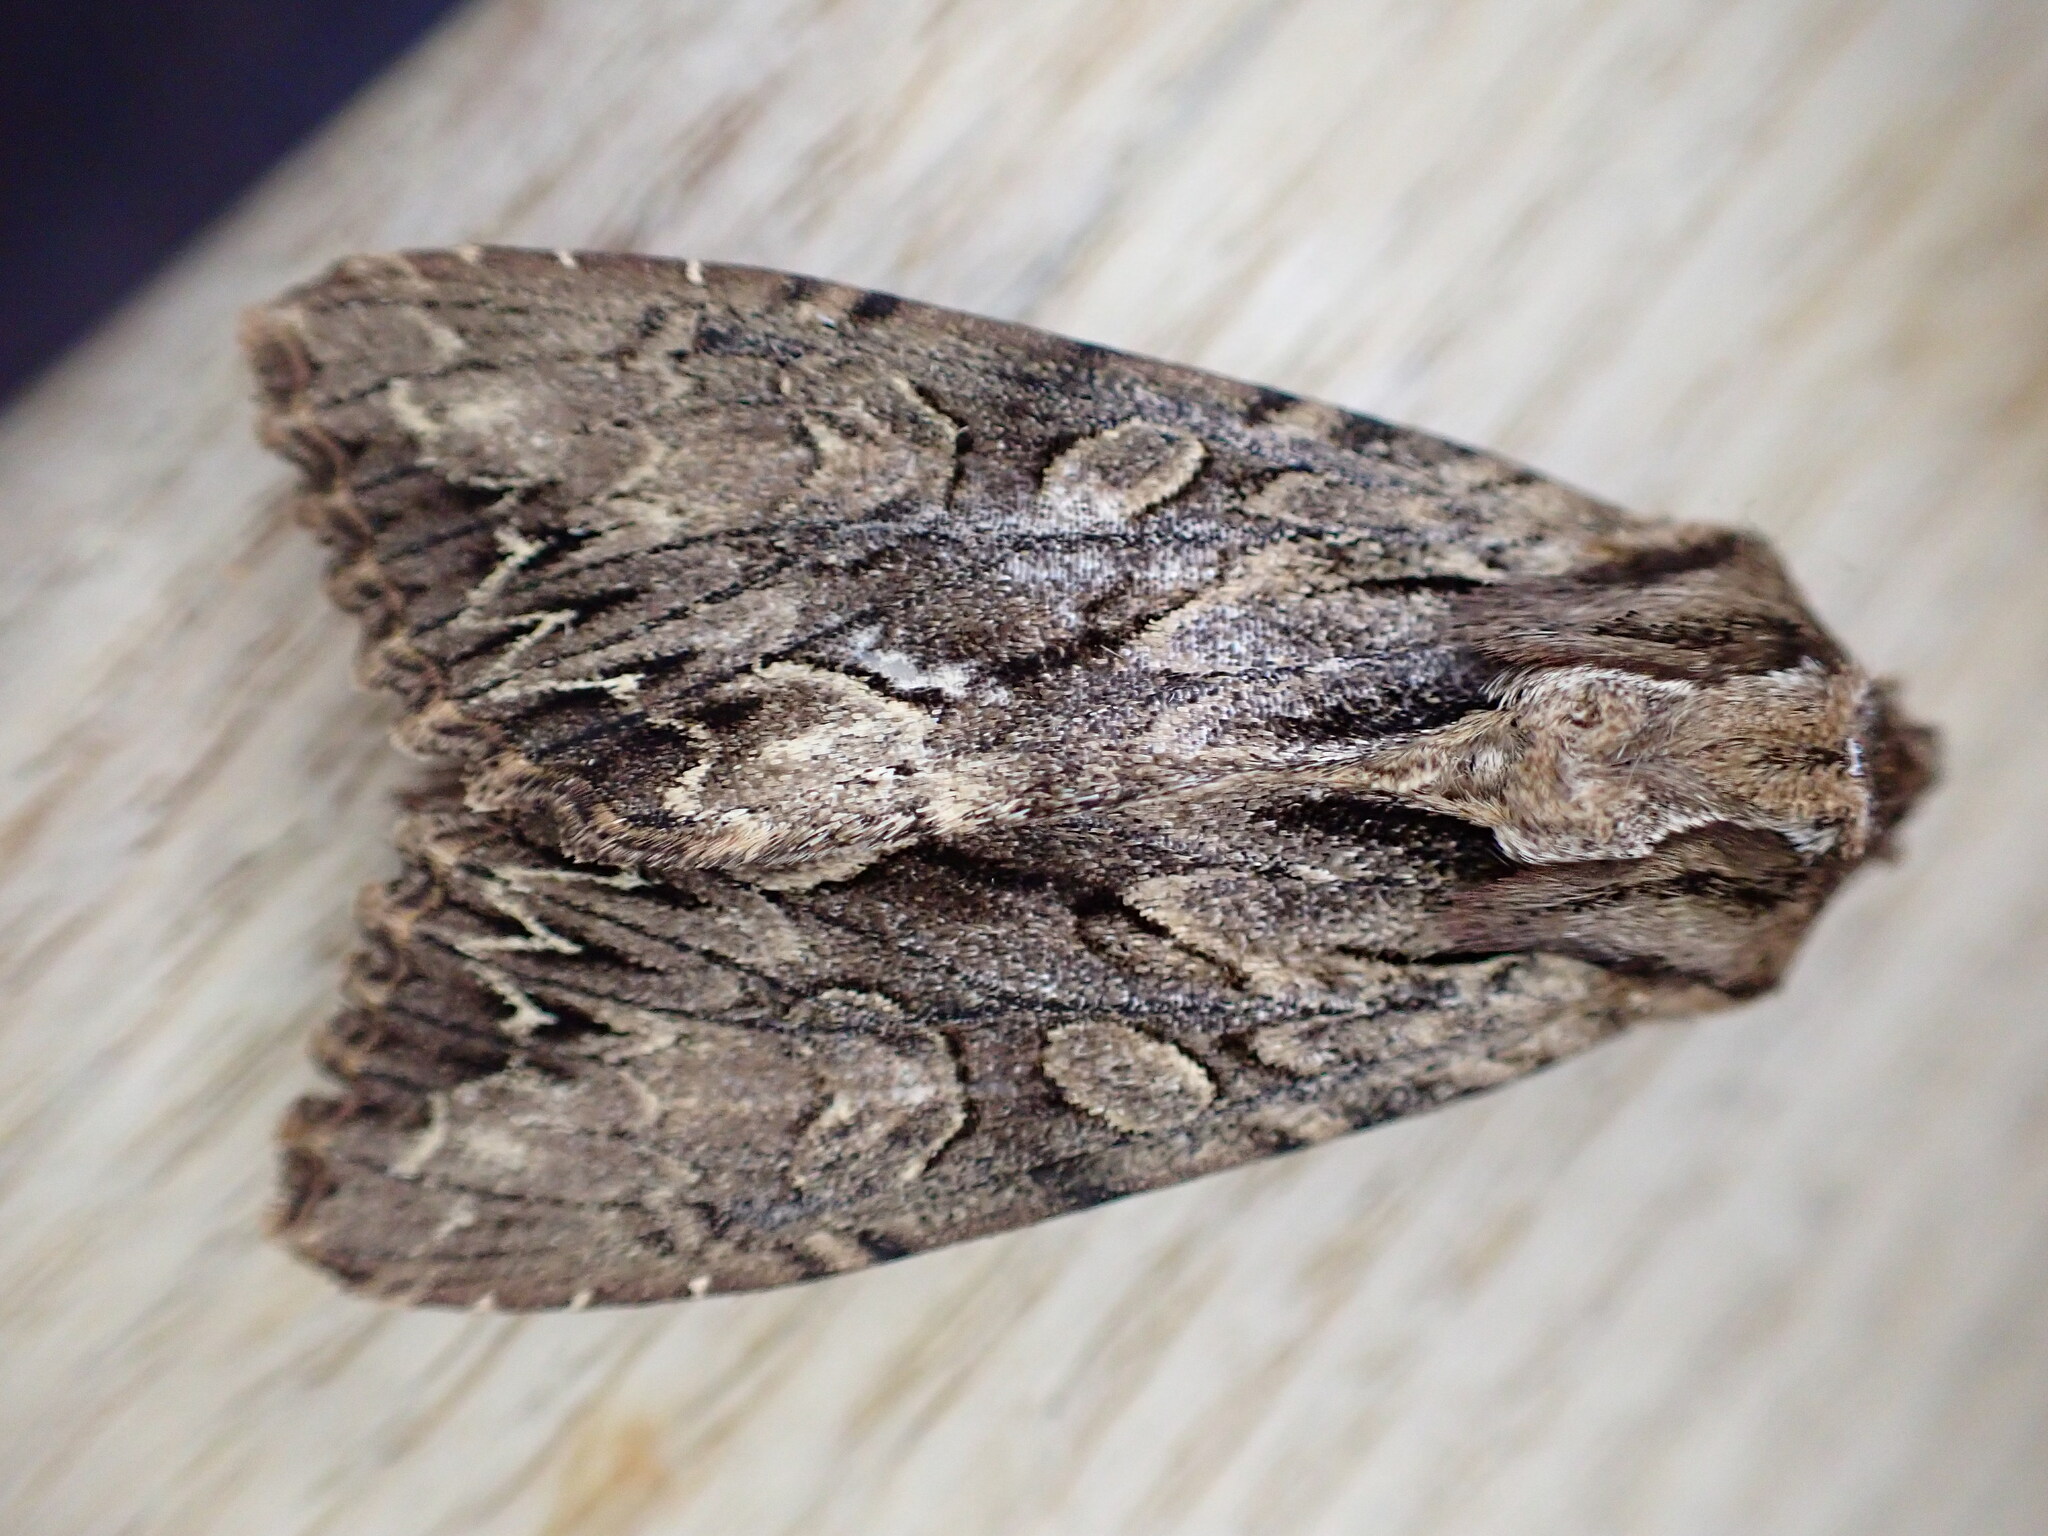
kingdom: Animalia
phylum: Arthropoda
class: Insecta
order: Lepidoptera
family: Noctuidae
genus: Apamea
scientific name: Apamea monoglypha
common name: Dark arches
